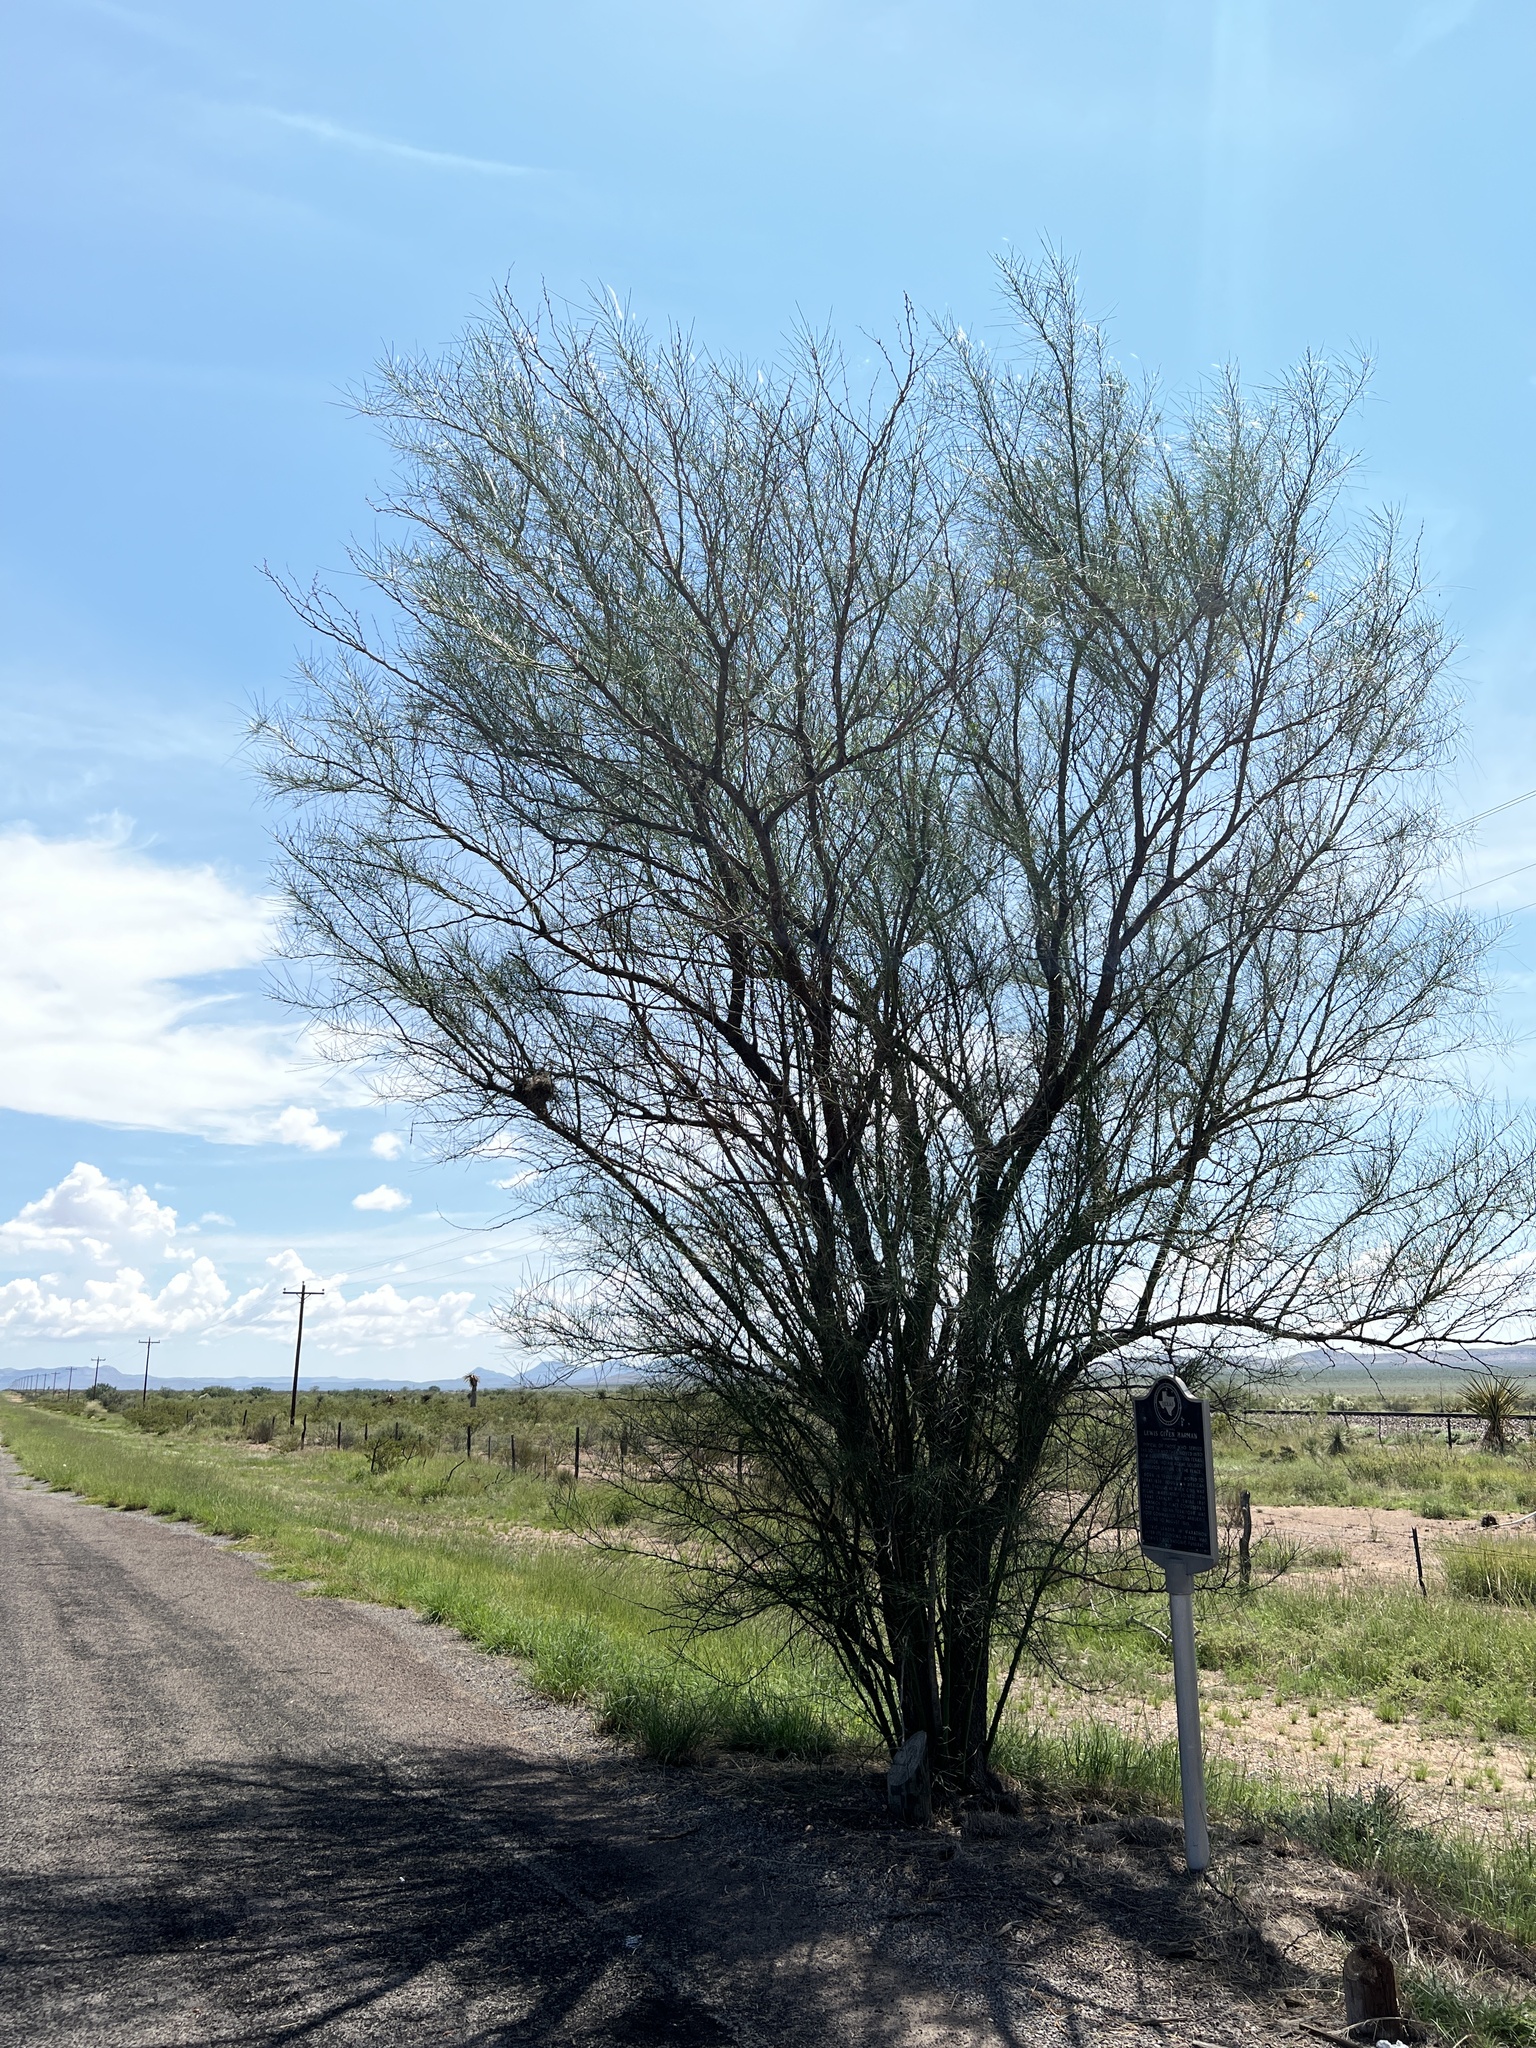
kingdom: Plantae
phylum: Tracheophyta
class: Magnoliopsida
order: Fabales
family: Fabaceae
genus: Parkinsonia
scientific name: Parkinsonia aculeata
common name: Jerusalem thorn
